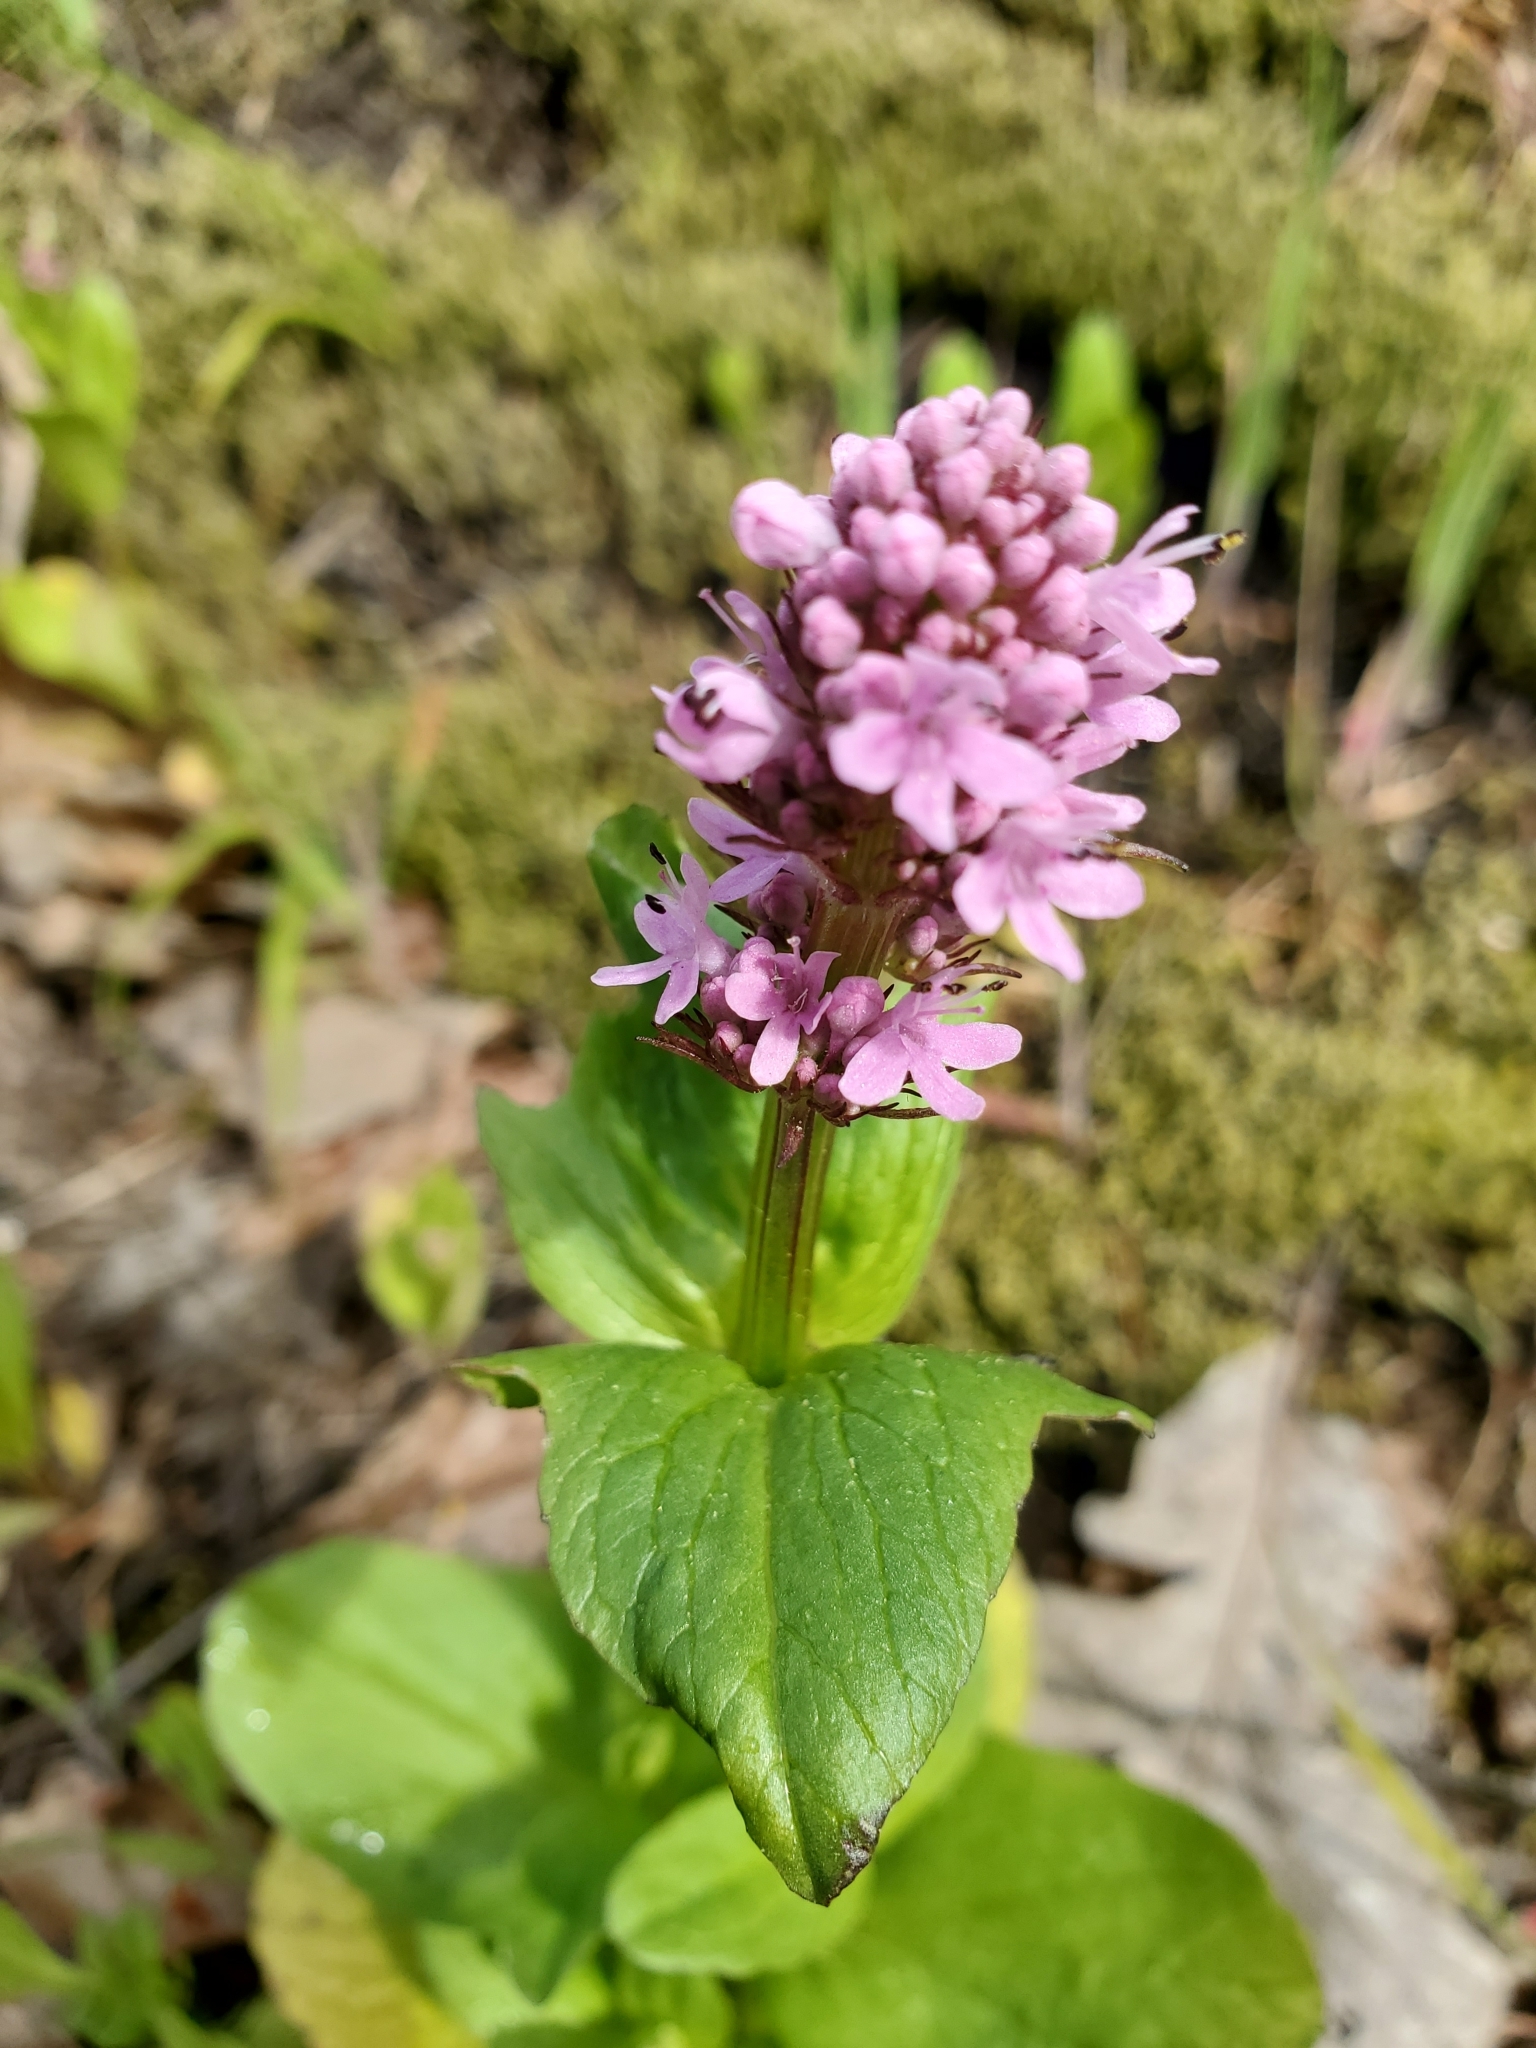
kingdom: Plantae
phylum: Tracheophyta
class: Magnoliopsida
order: Dipsacales
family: Caprifoliaceae
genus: Plectritis
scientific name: Plectritis congesta
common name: Pink plectritis
